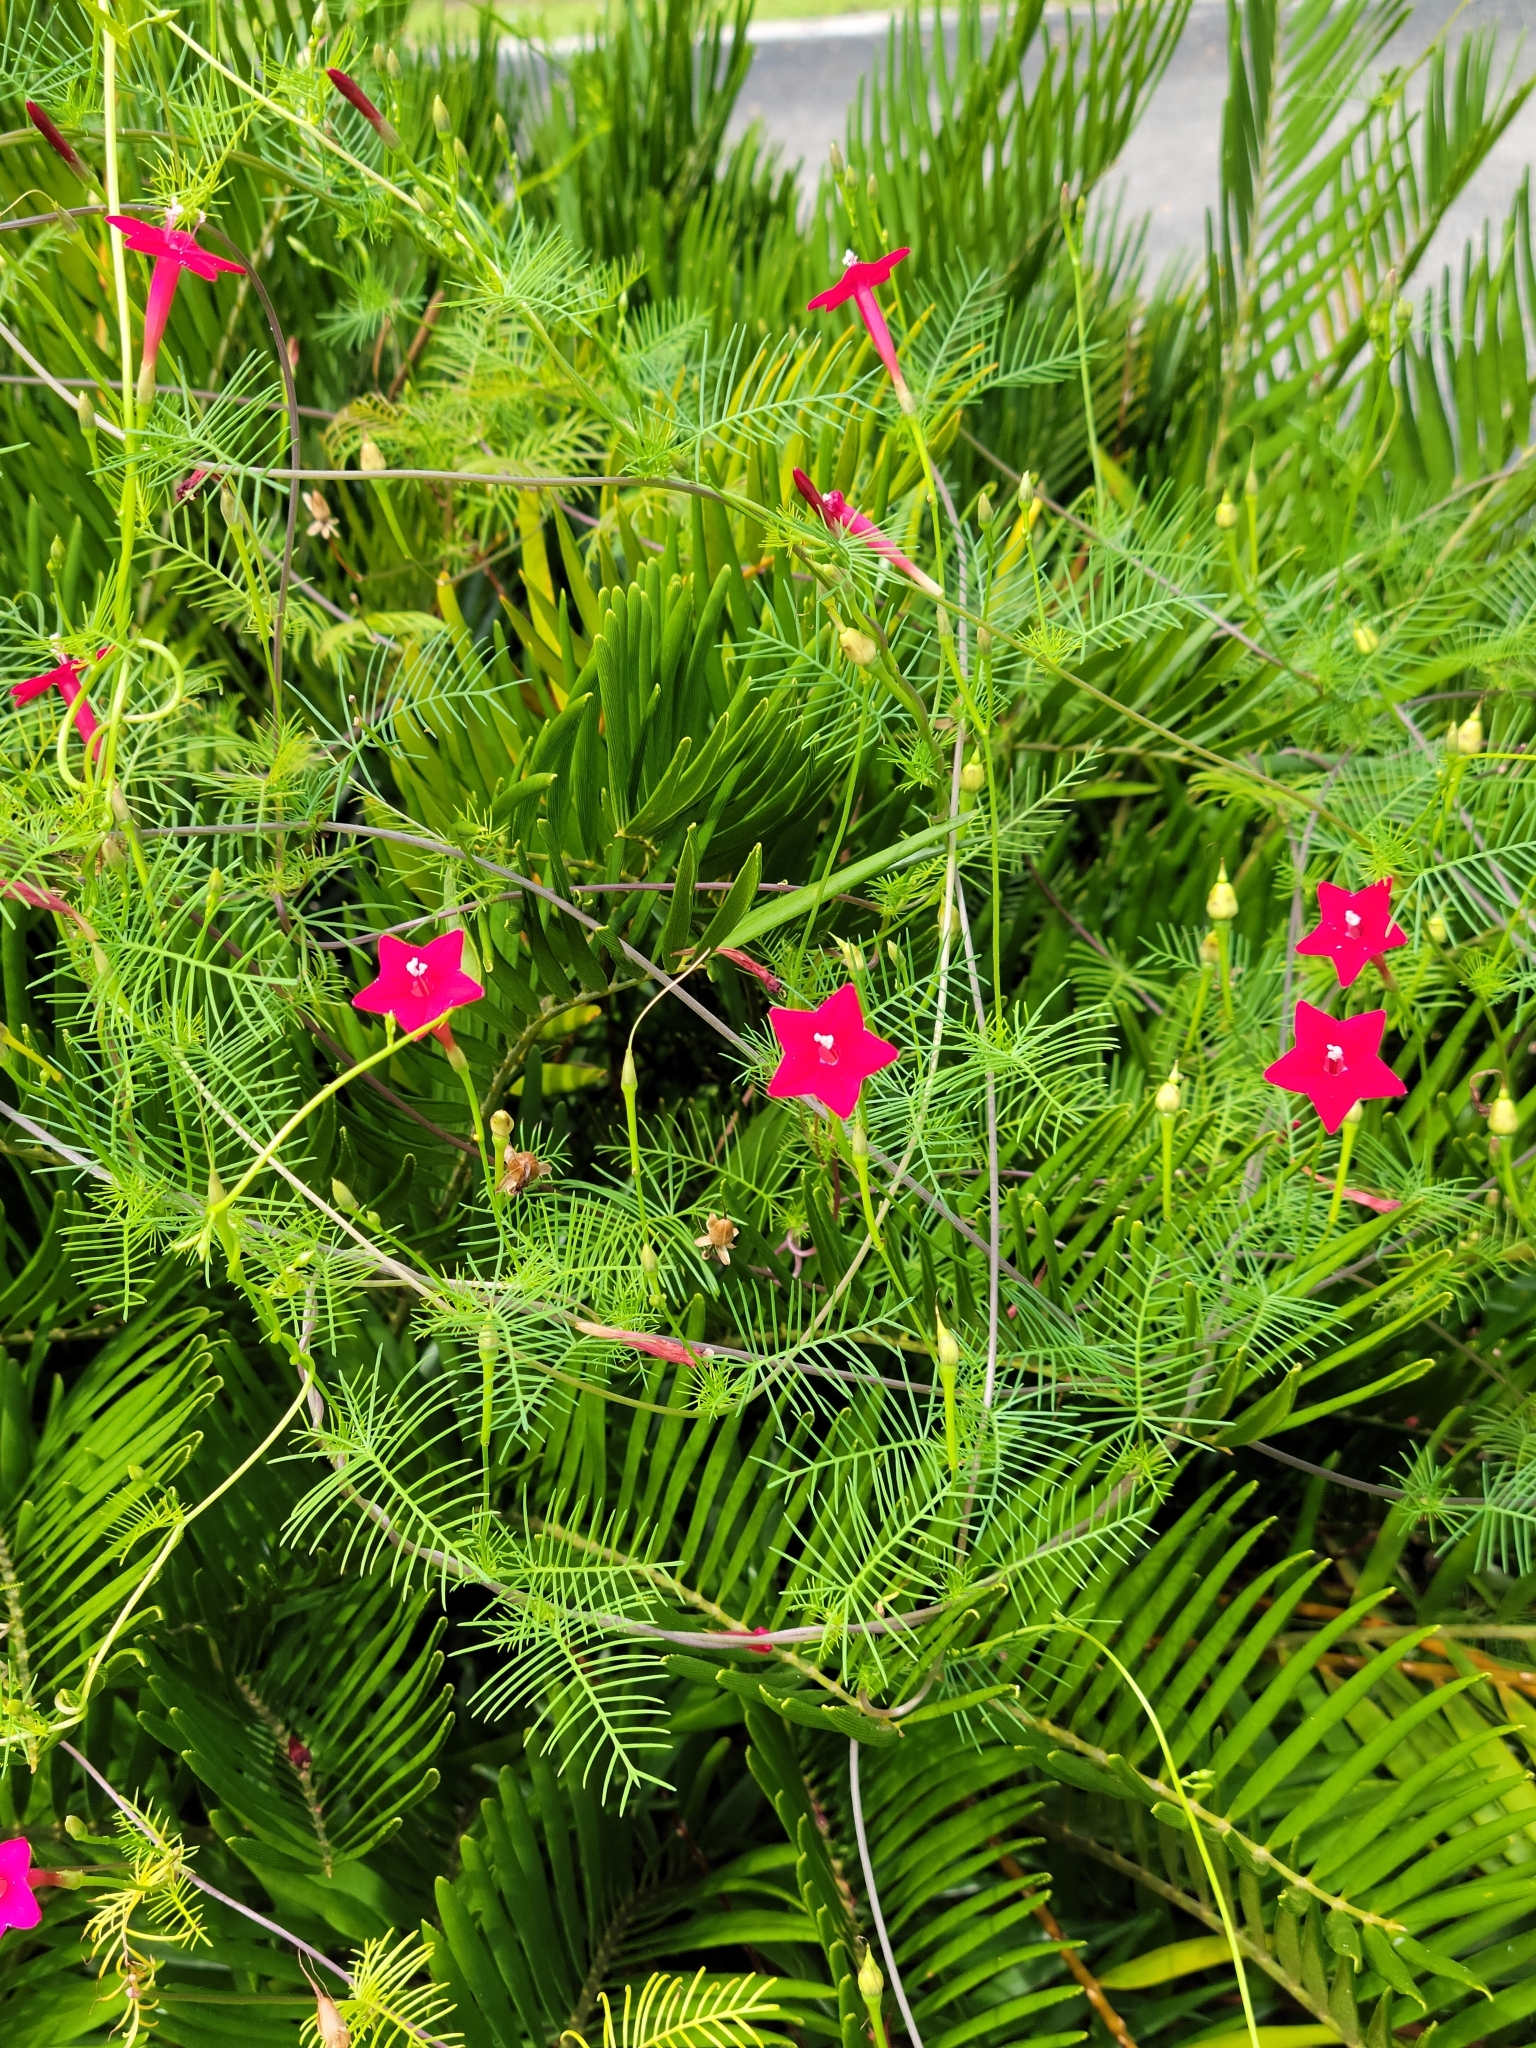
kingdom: Plantae
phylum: Tracheophyta
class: Magnoliopsida
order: Solanales
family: Convolvulaceae
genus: Ipomoea
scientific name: Ipomoea quamoclit
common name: Cypress vine
